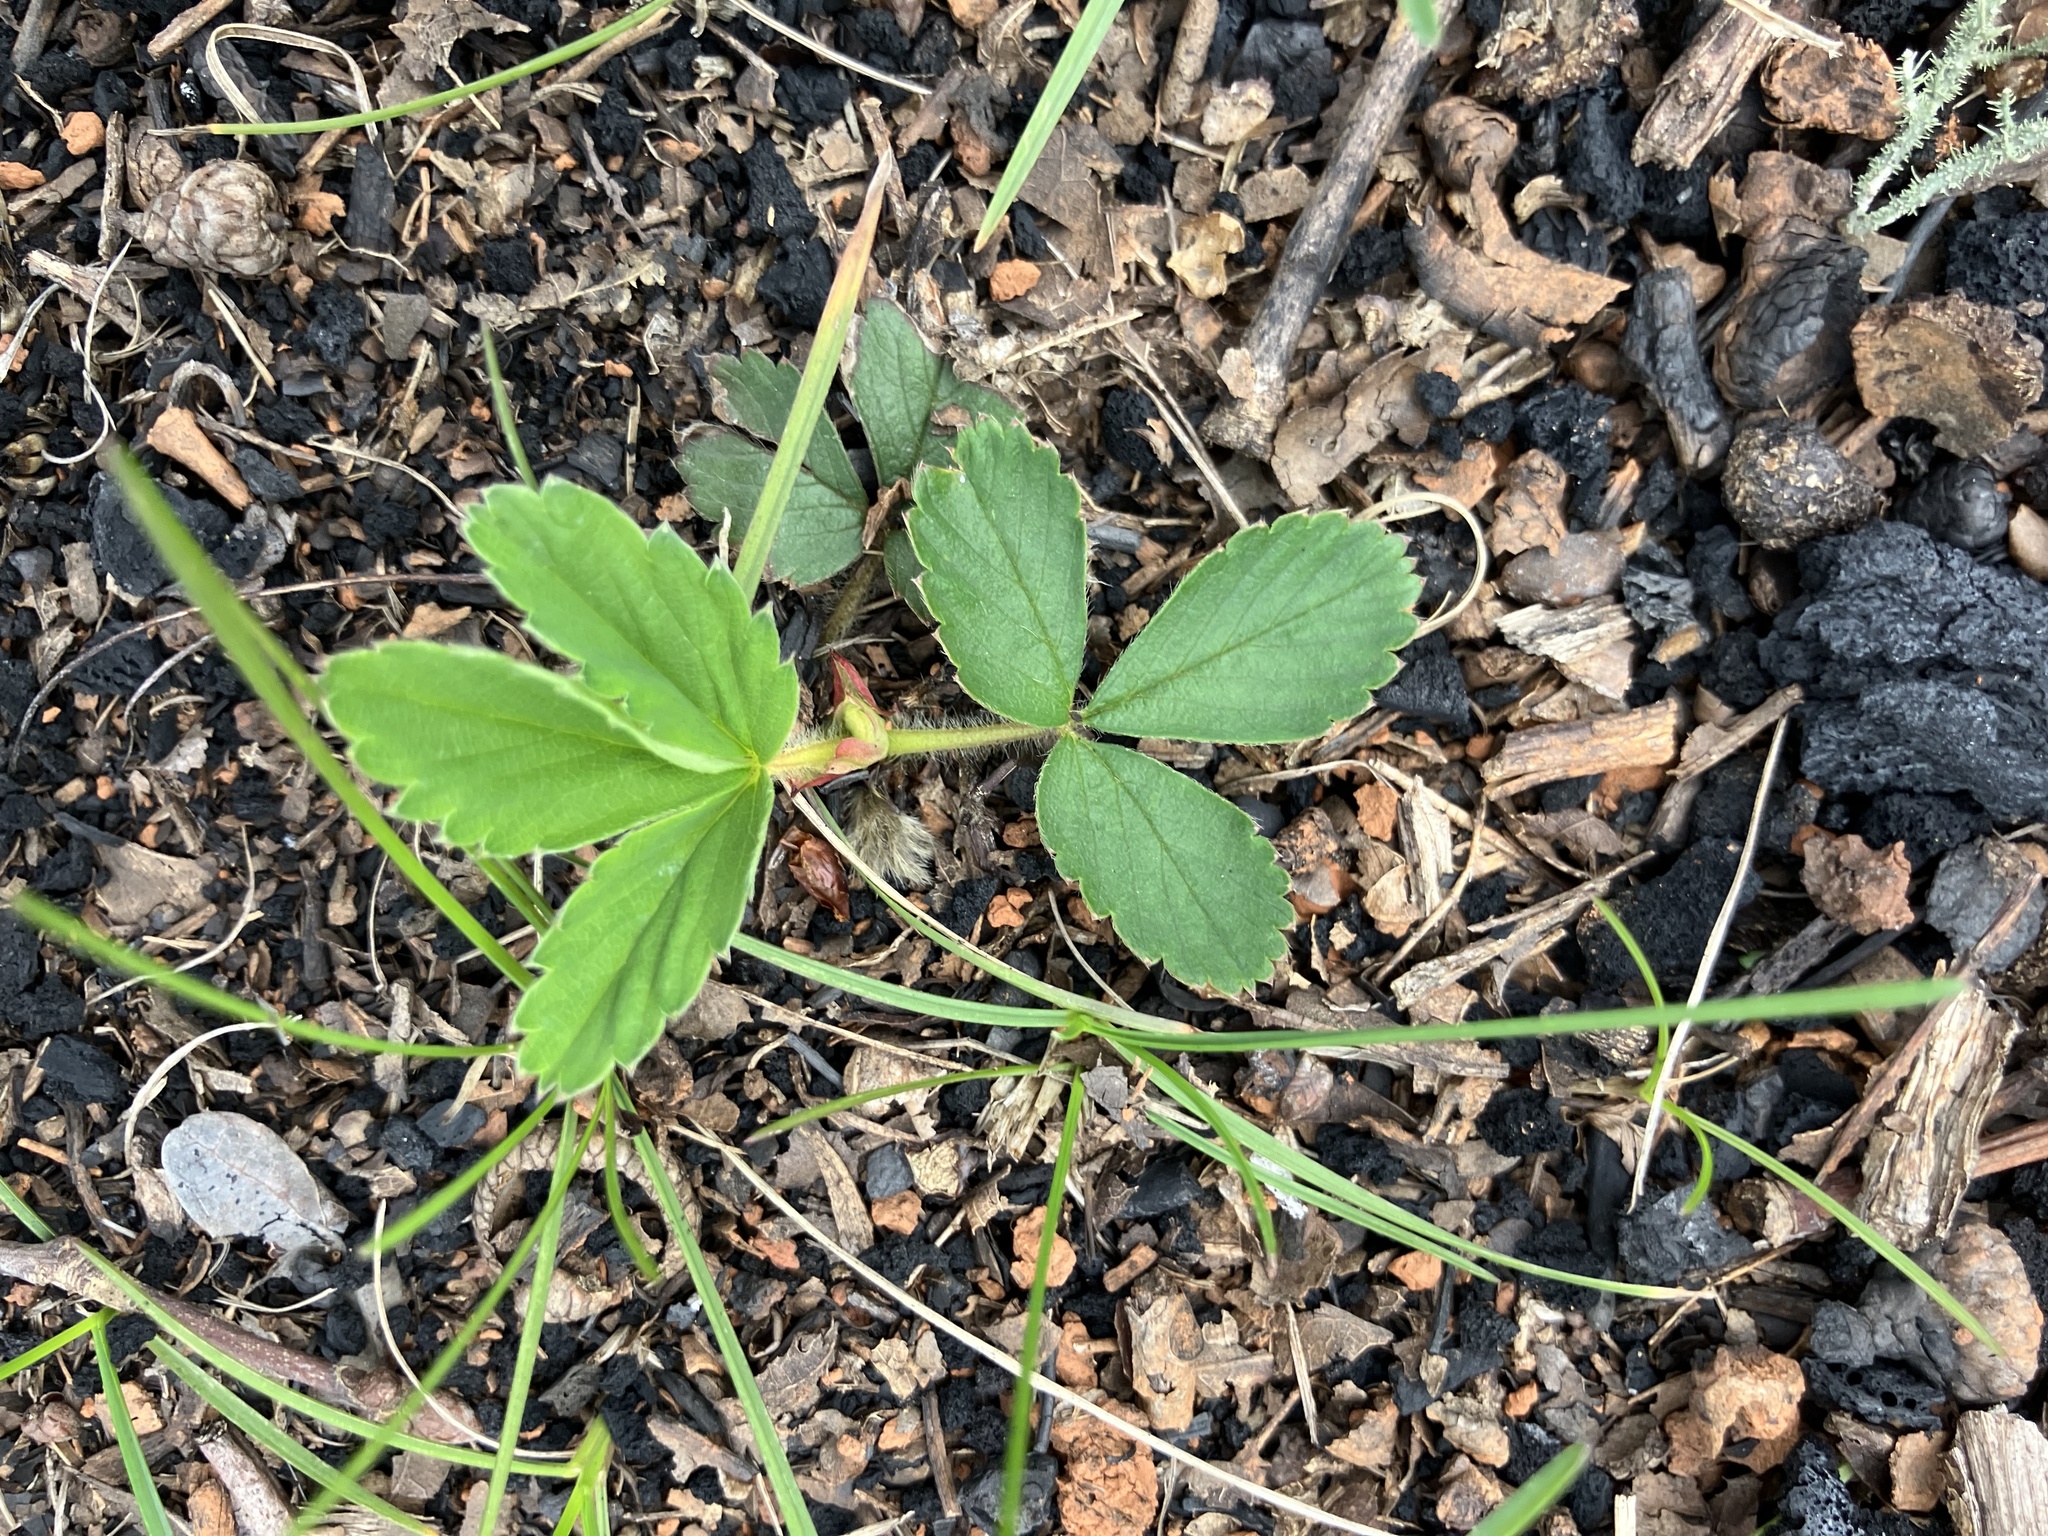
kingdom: Plantae
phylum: Tracheophyta
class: Magnoliopsida
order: Rosales
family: Rosaceae
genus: Fragaria
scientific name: Fragaria virginiana
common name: Thickleaved wild strawberry
